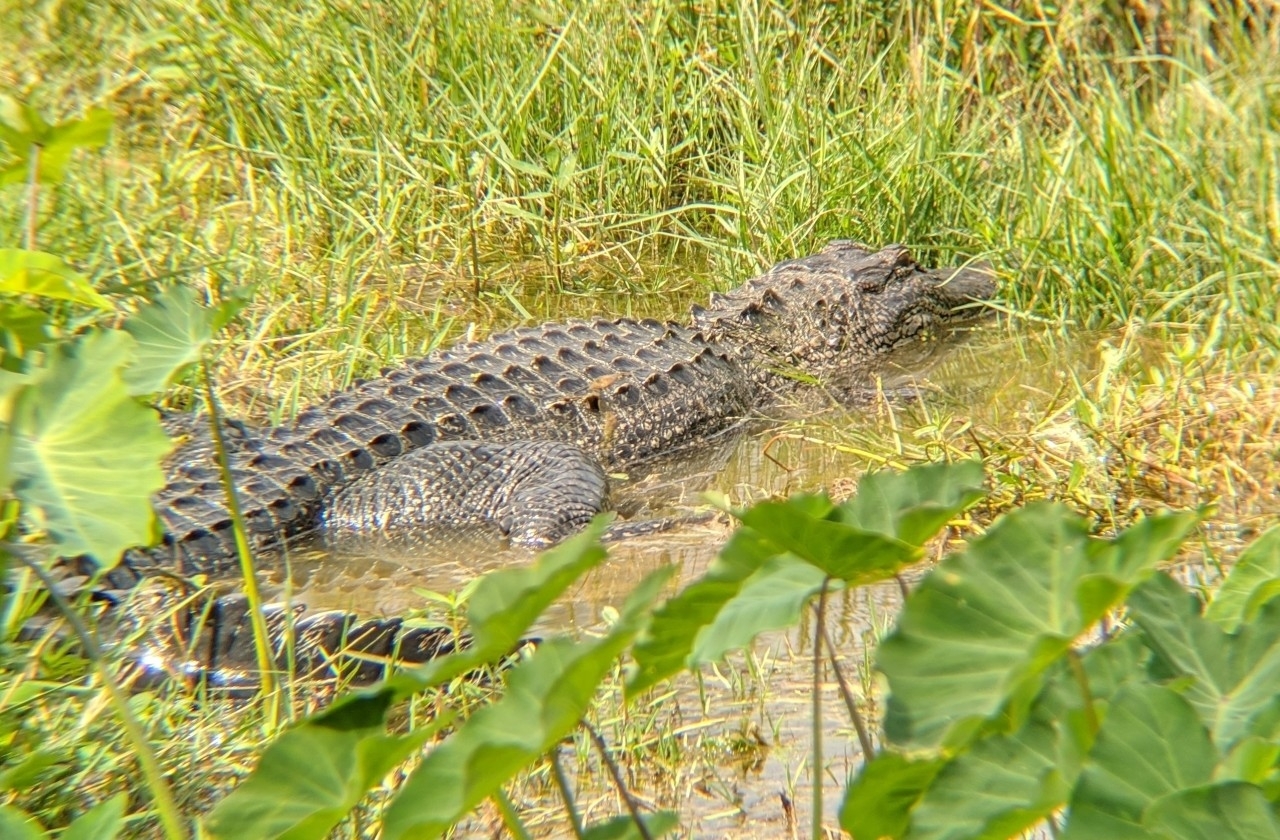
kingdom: Animalia
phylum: Chordata
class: Crocodylia
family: Alligatoridae
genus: Alligator
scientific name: Alligator mississippiensis
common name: American alligator
